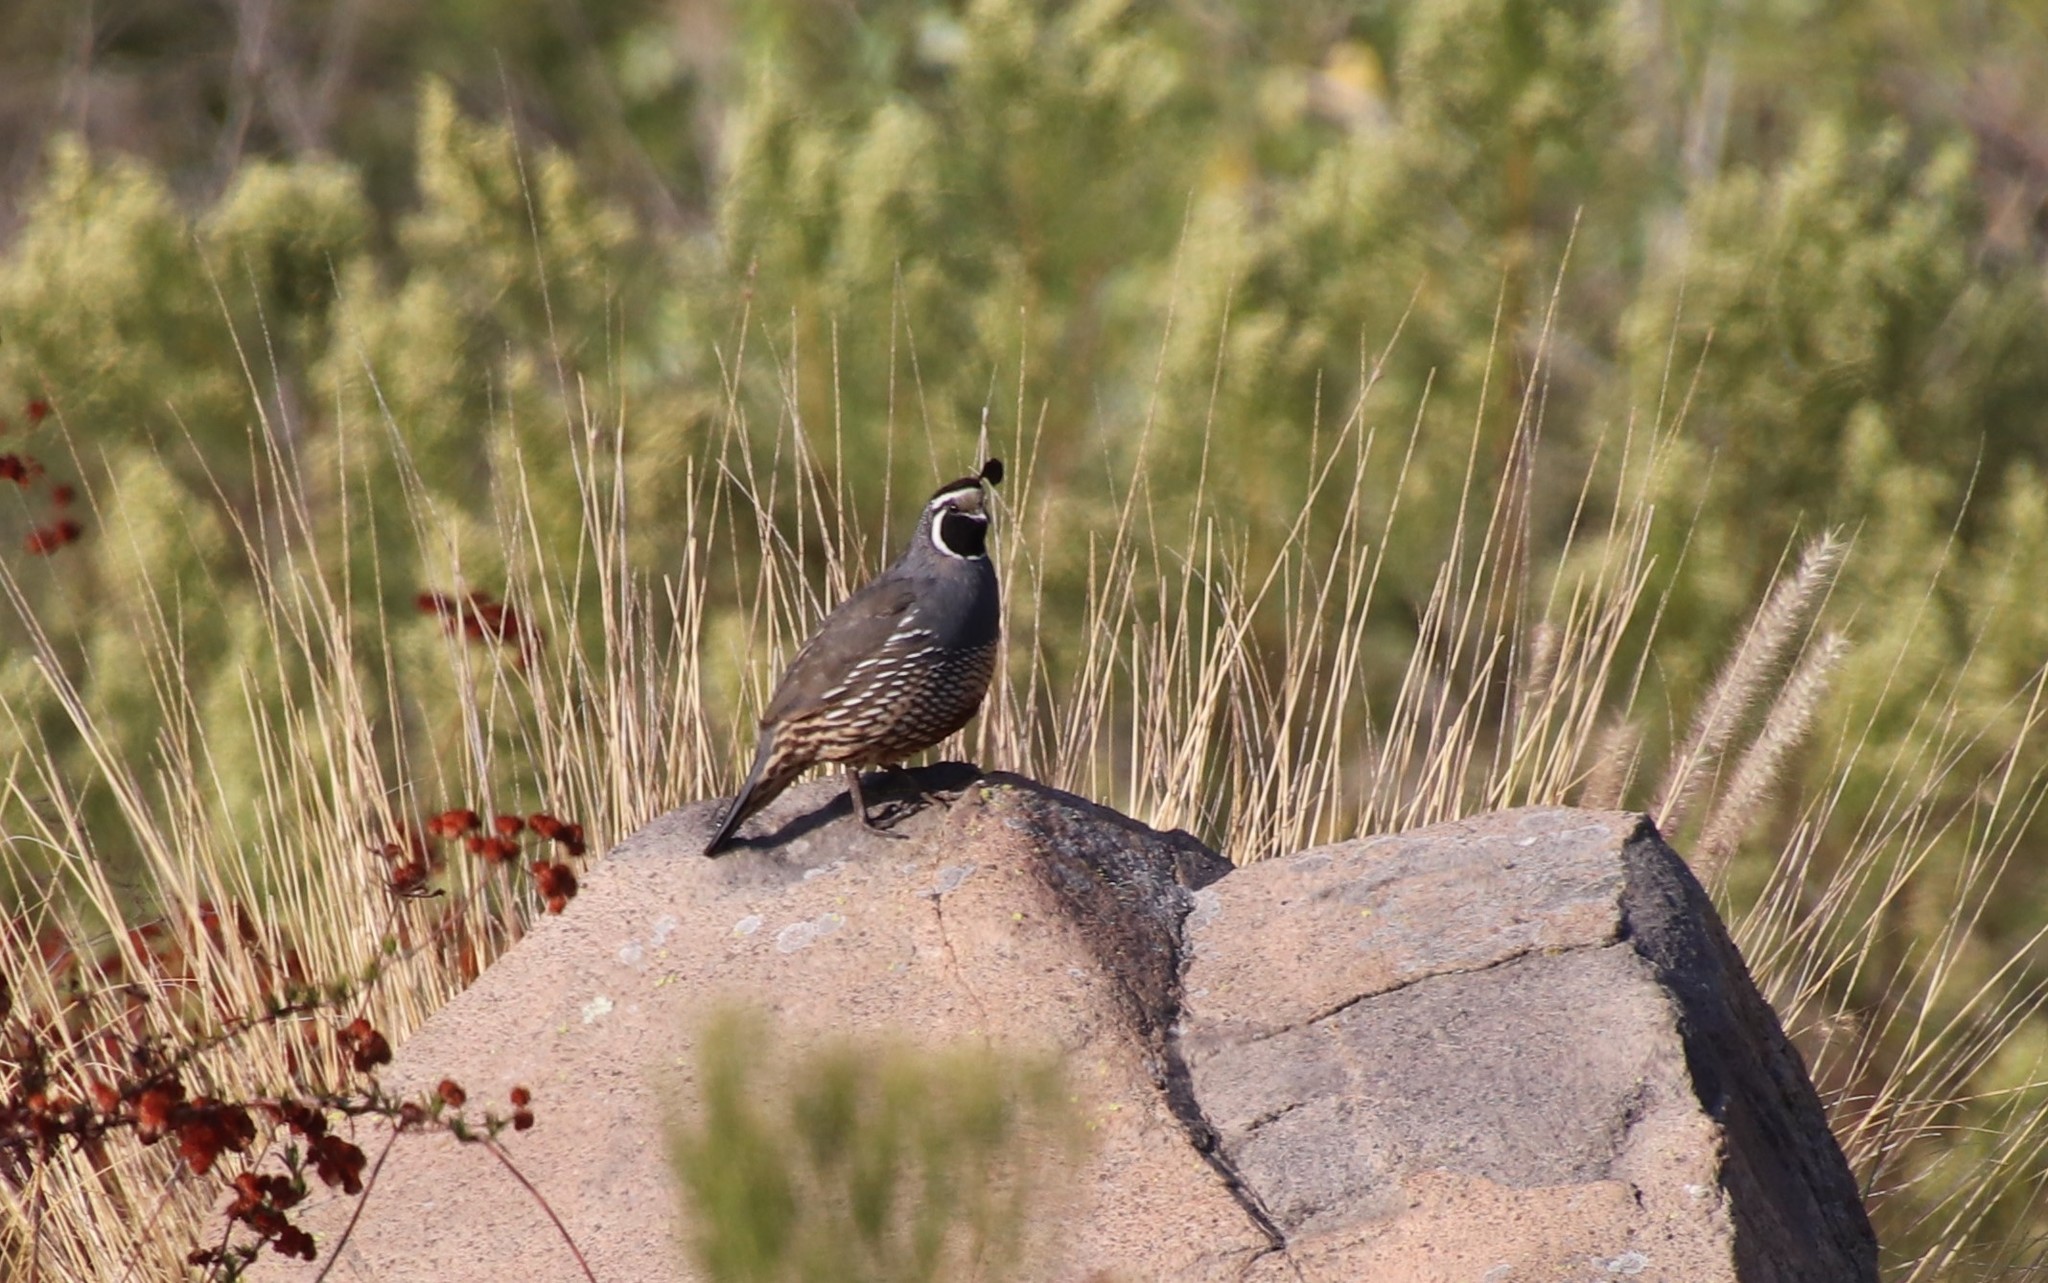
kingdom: Animalia
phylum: Chordata
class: Aves
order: Galliformes
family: Odontophoridae
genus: Callipepla
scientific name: Callipepla californica
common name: California quail
